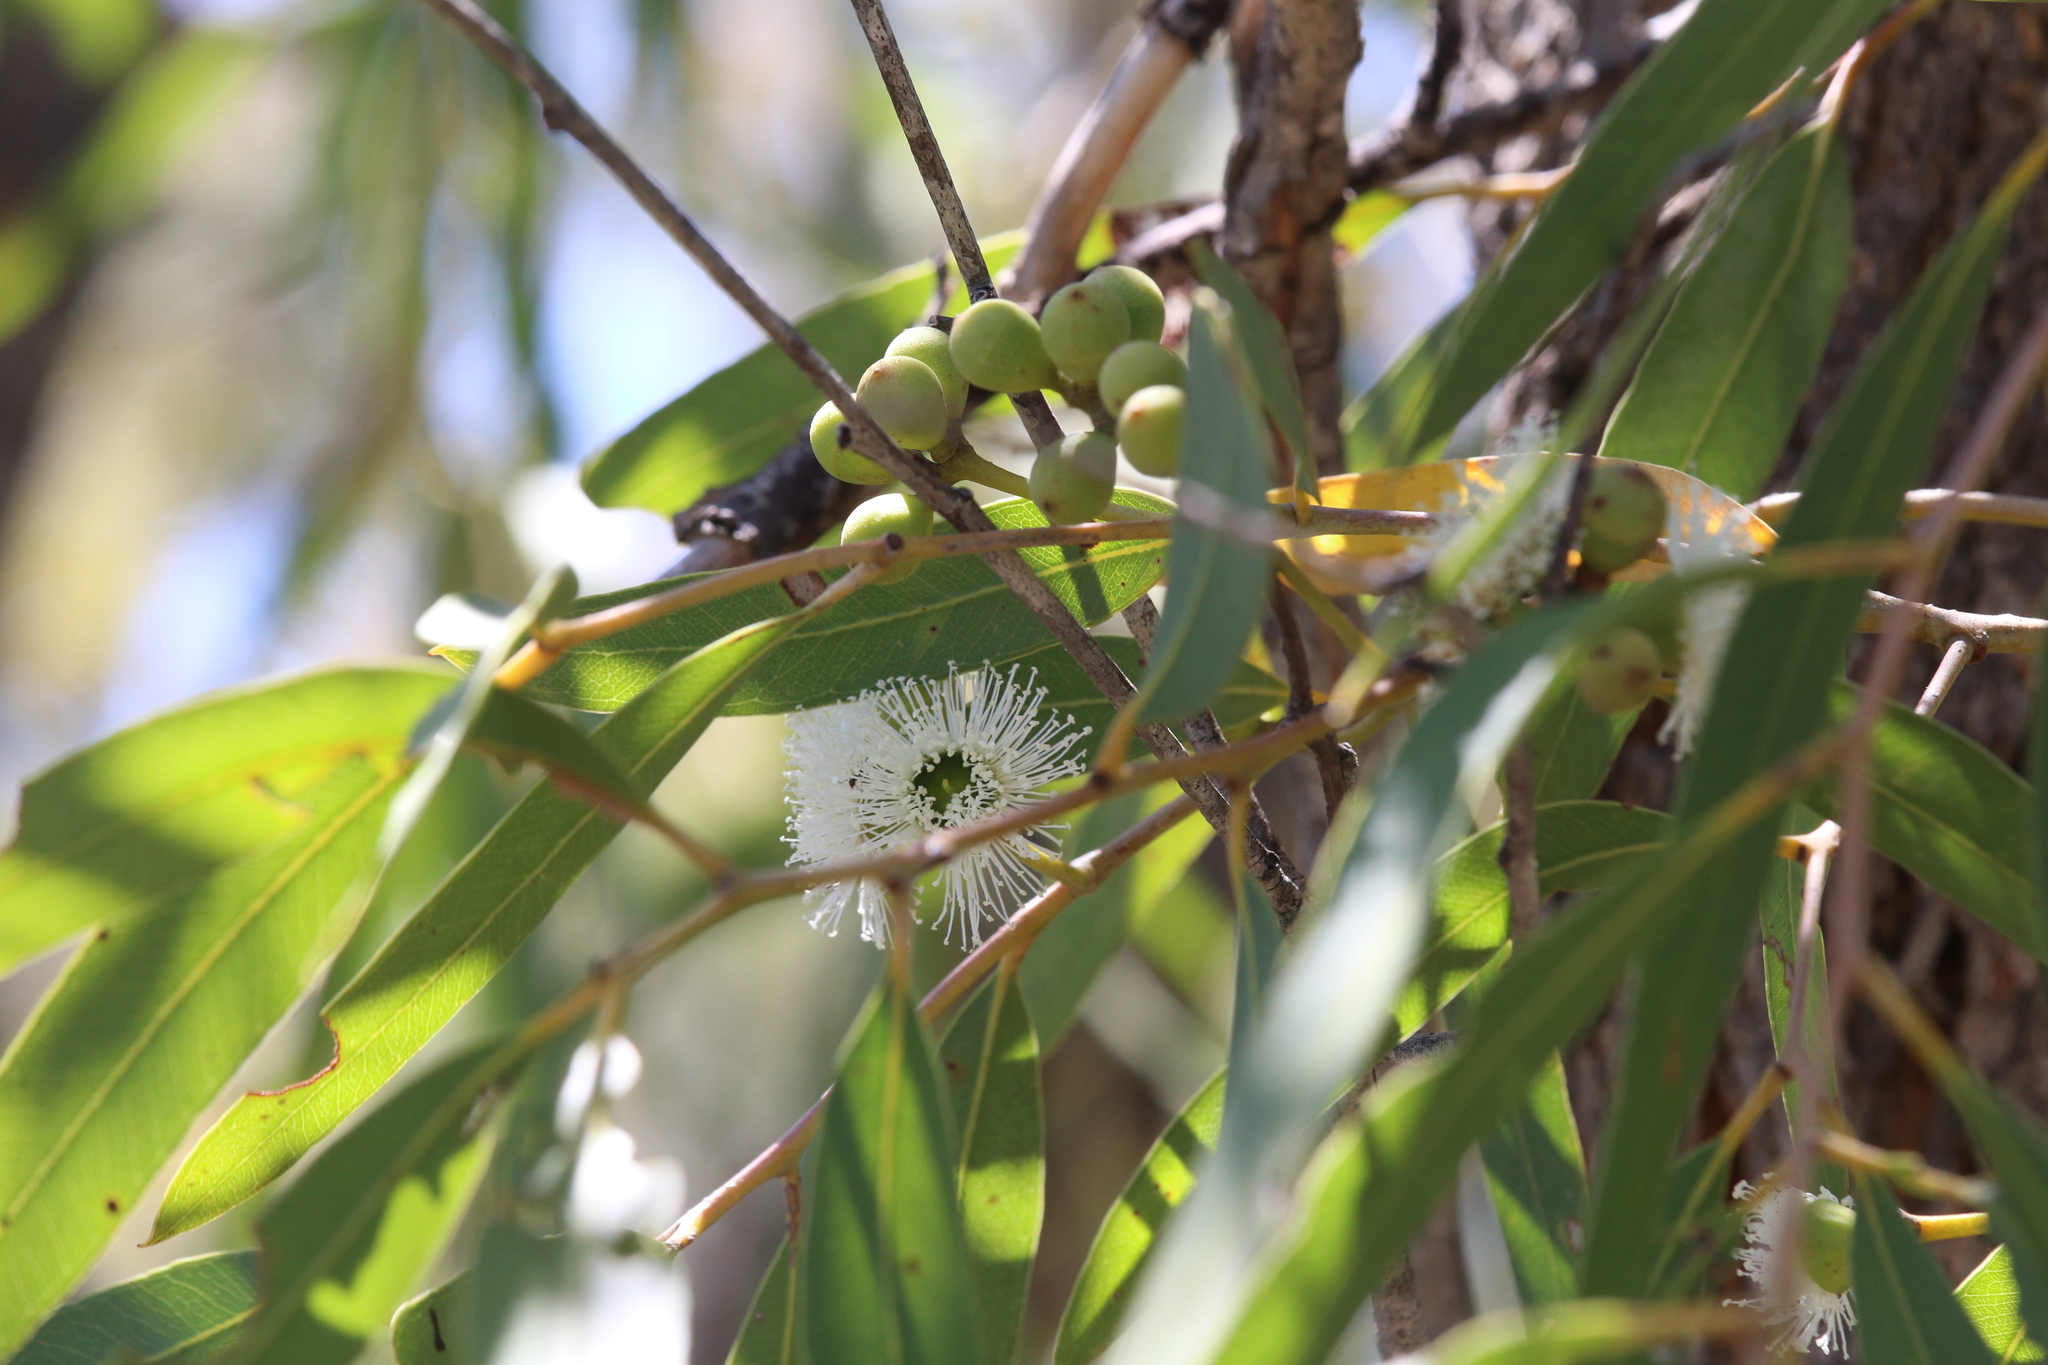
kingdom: Plantae
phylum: Tracheophyta
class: Magnoliopsida
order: Myrtales
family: Myrtaceae
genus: Eucalyptus
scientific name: Eucalyptus todtiana
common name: Coastal blackbutt
